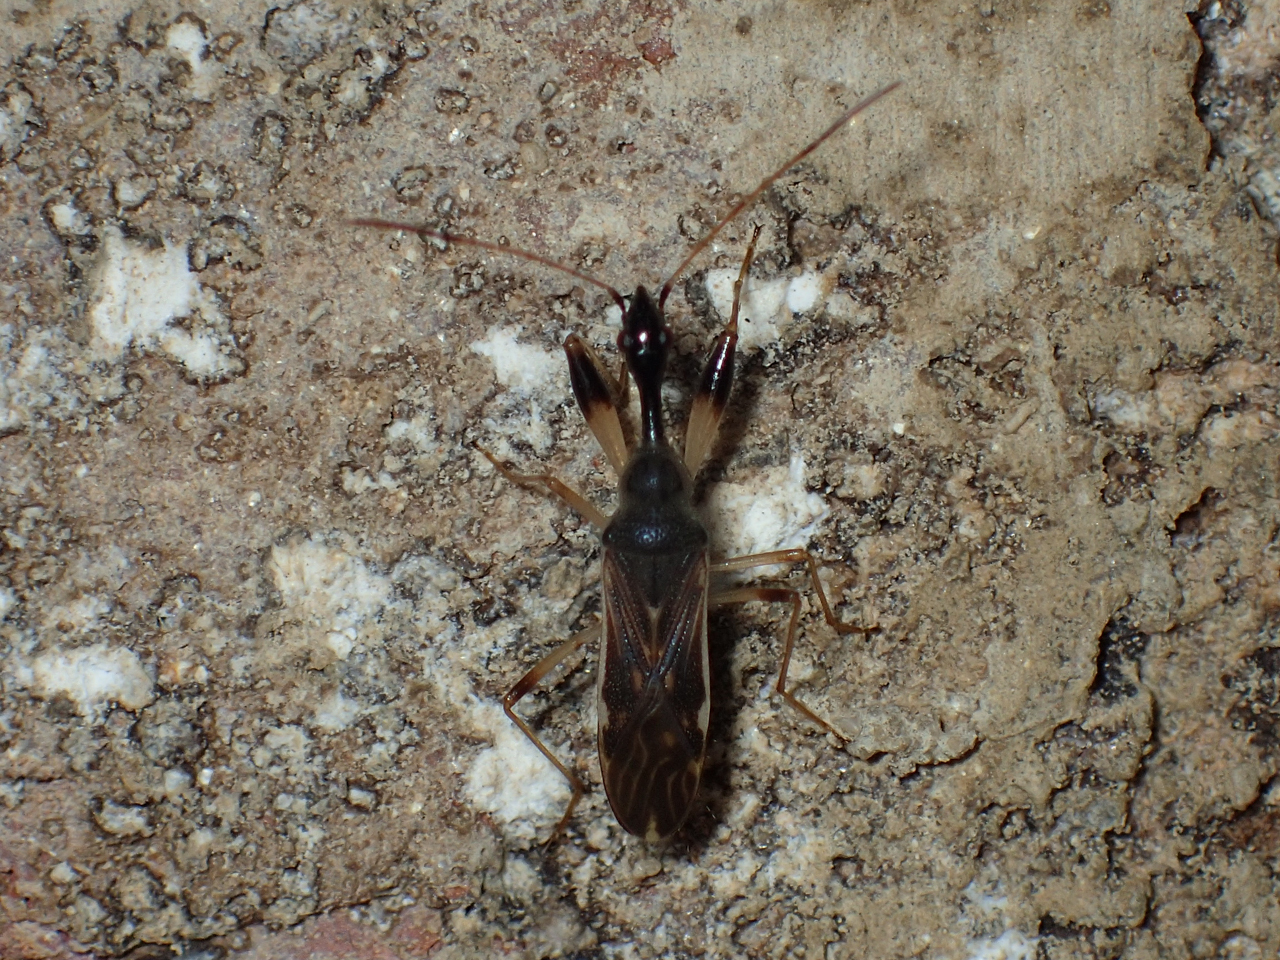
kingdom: Animalia
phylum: Arthropoda
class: Insecta
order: Hemiptera
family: Rhyparochromidae
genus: Myodocha
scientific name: Myodocha serripes
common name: Long-necked seed bug
